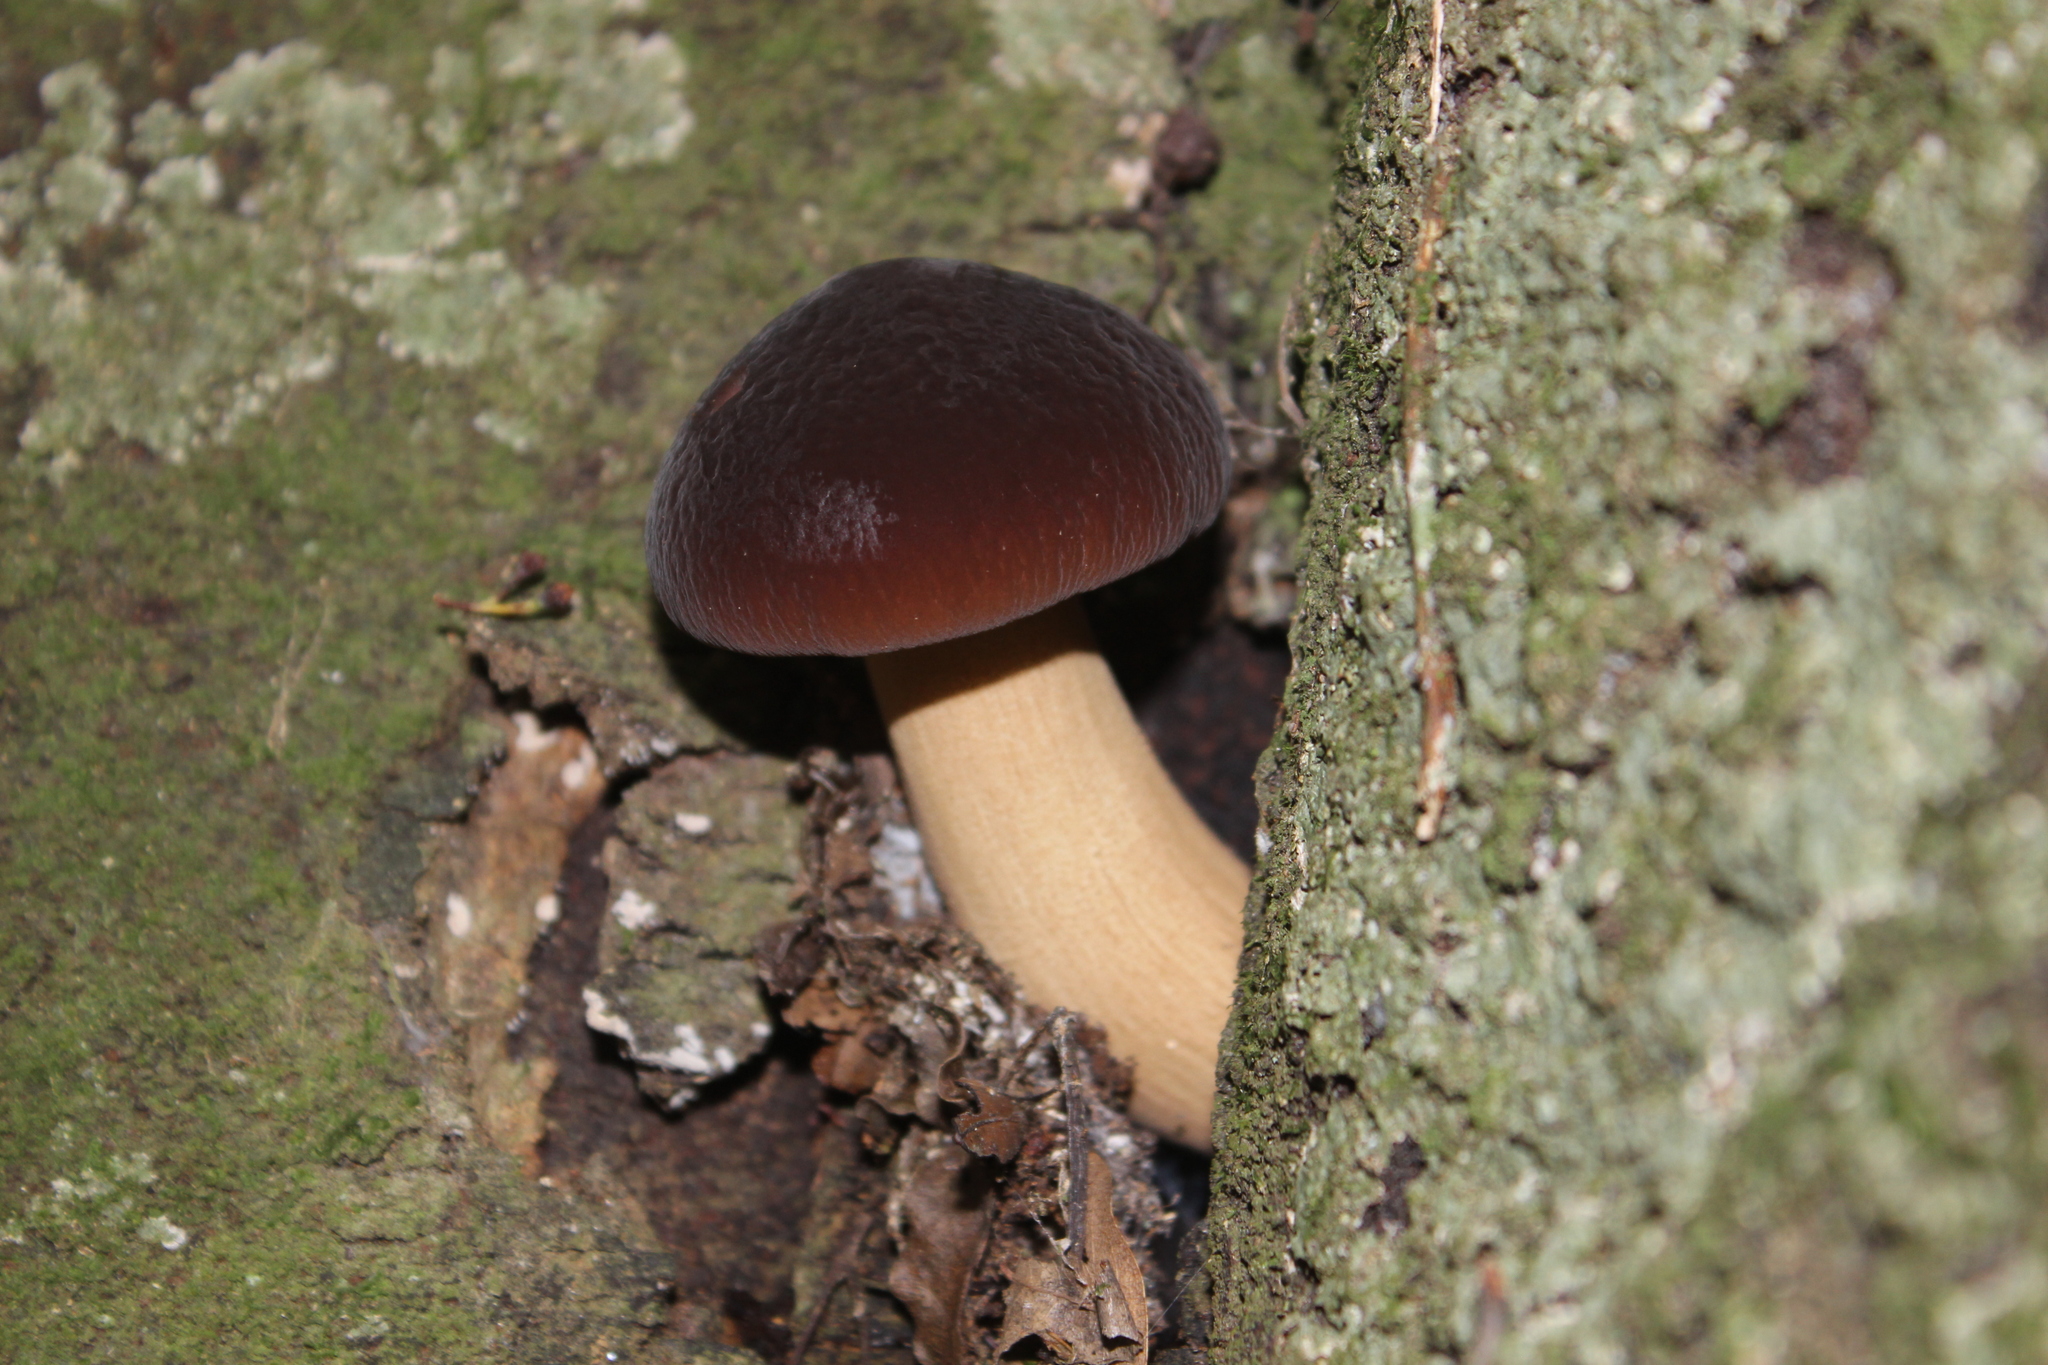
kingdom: Fungi
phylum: Basidiomycota
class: Agaricomycetes
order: Agaricales
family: Tubariaceae
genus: Cyclocybe
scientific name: Cyclocybe parasitica
